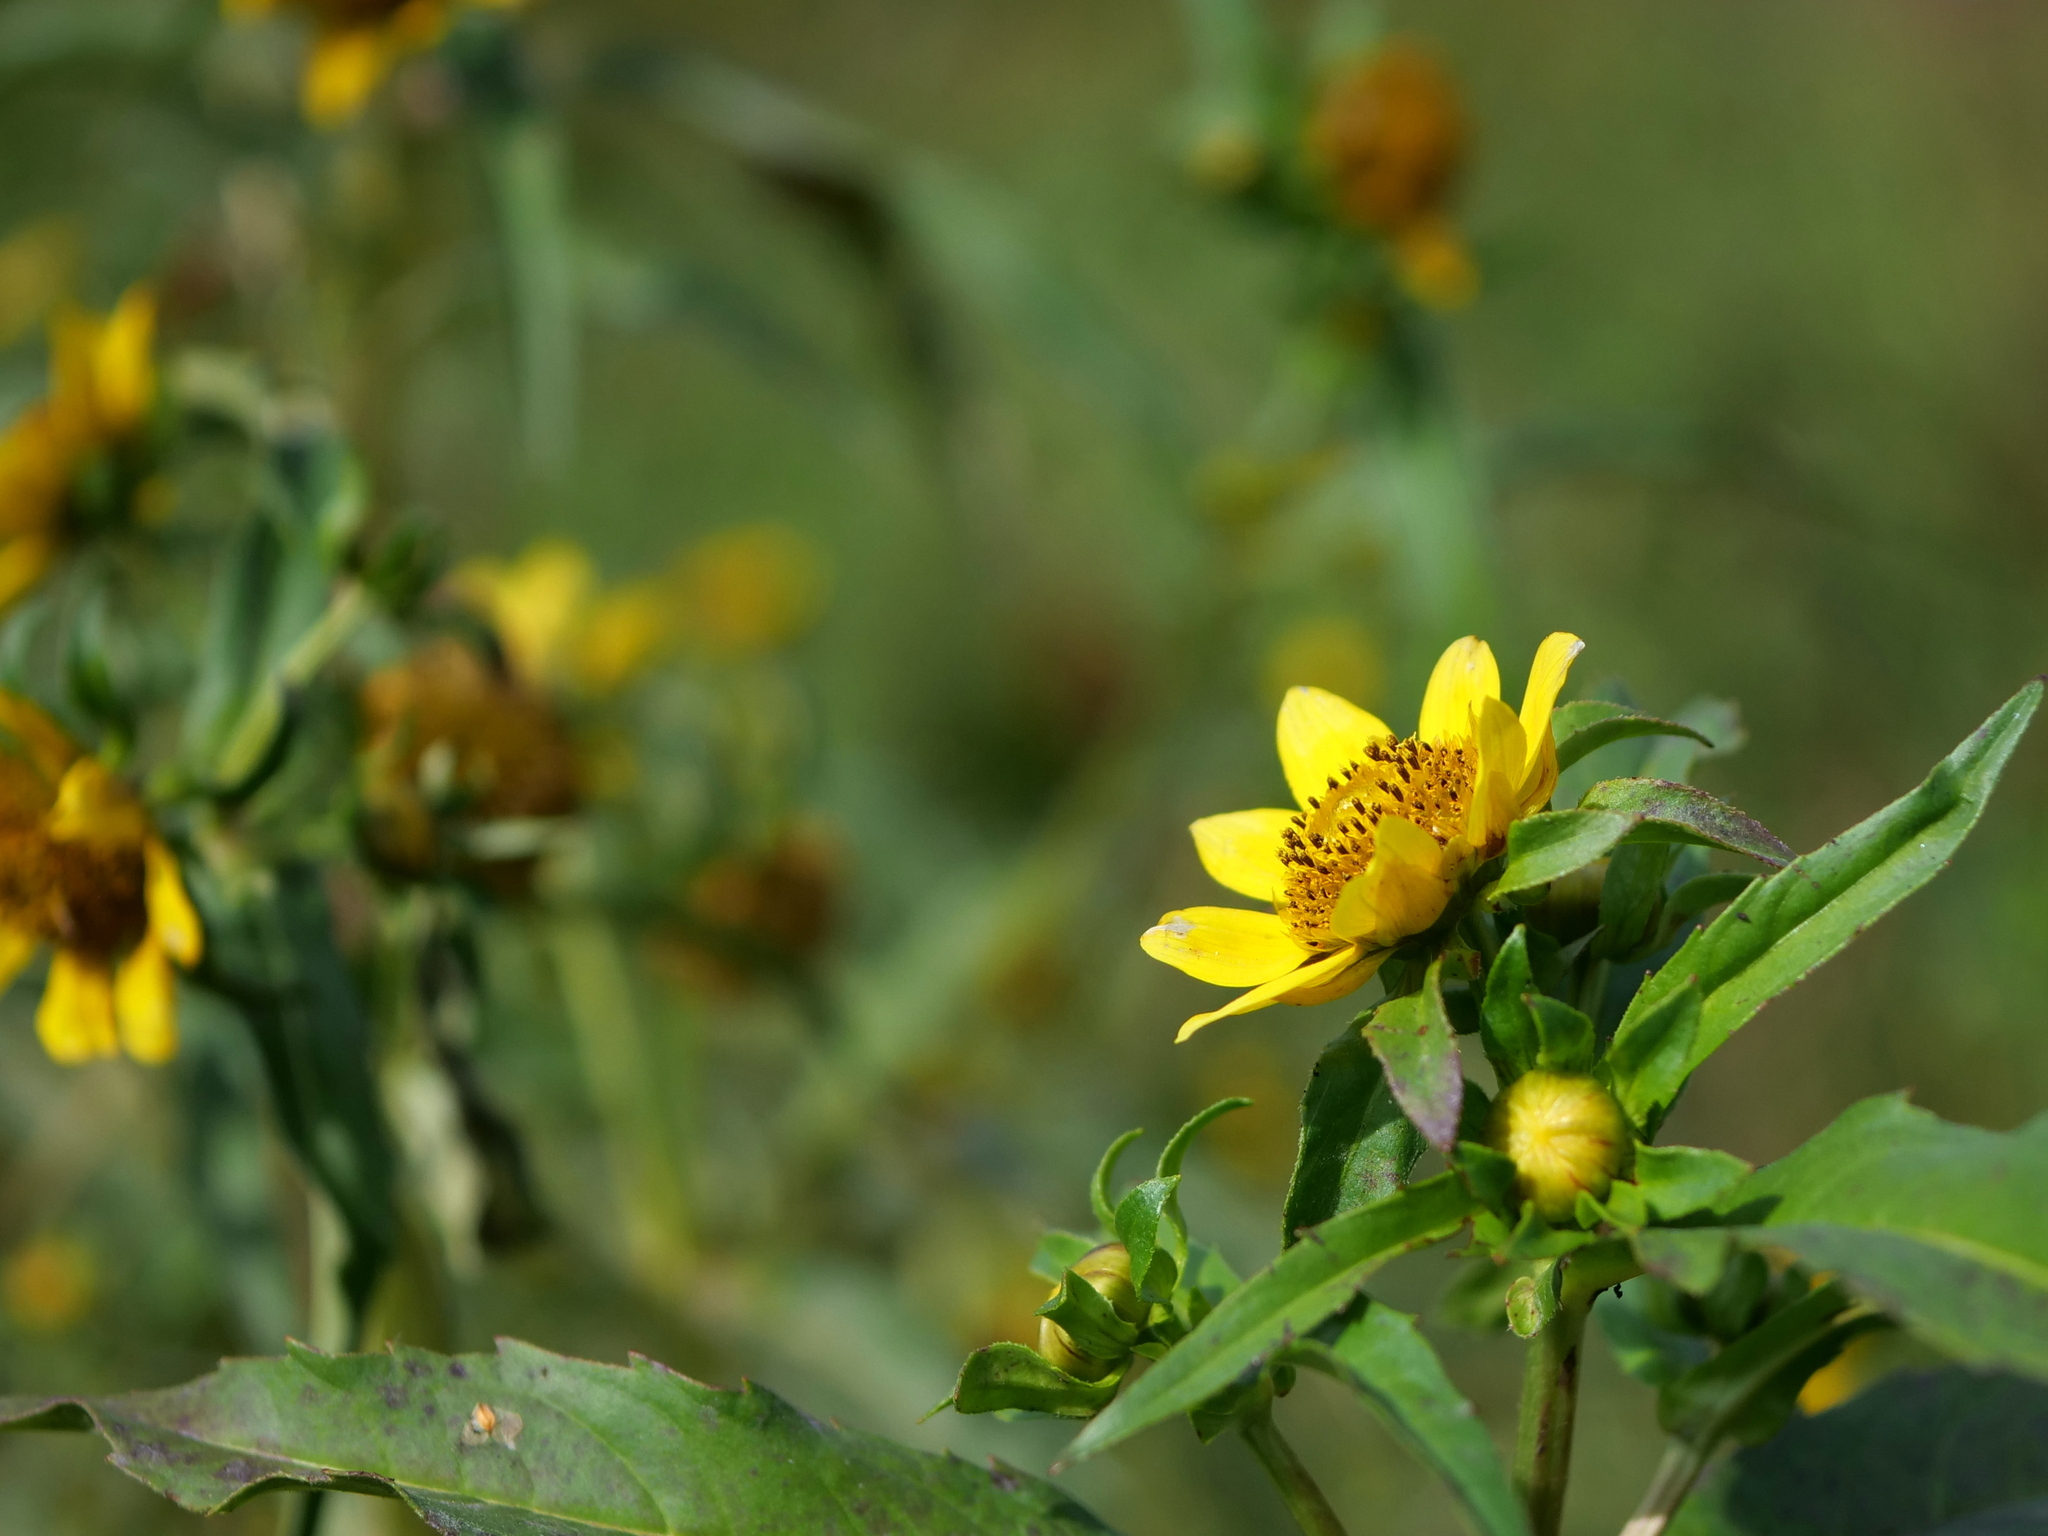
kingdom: Plantae
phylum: Tracheophyta
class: Magnoliopsida
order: Asterales
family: Asteraceae
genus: Bidens
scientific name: Bidens cernua
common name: Nodding bur-marigold
